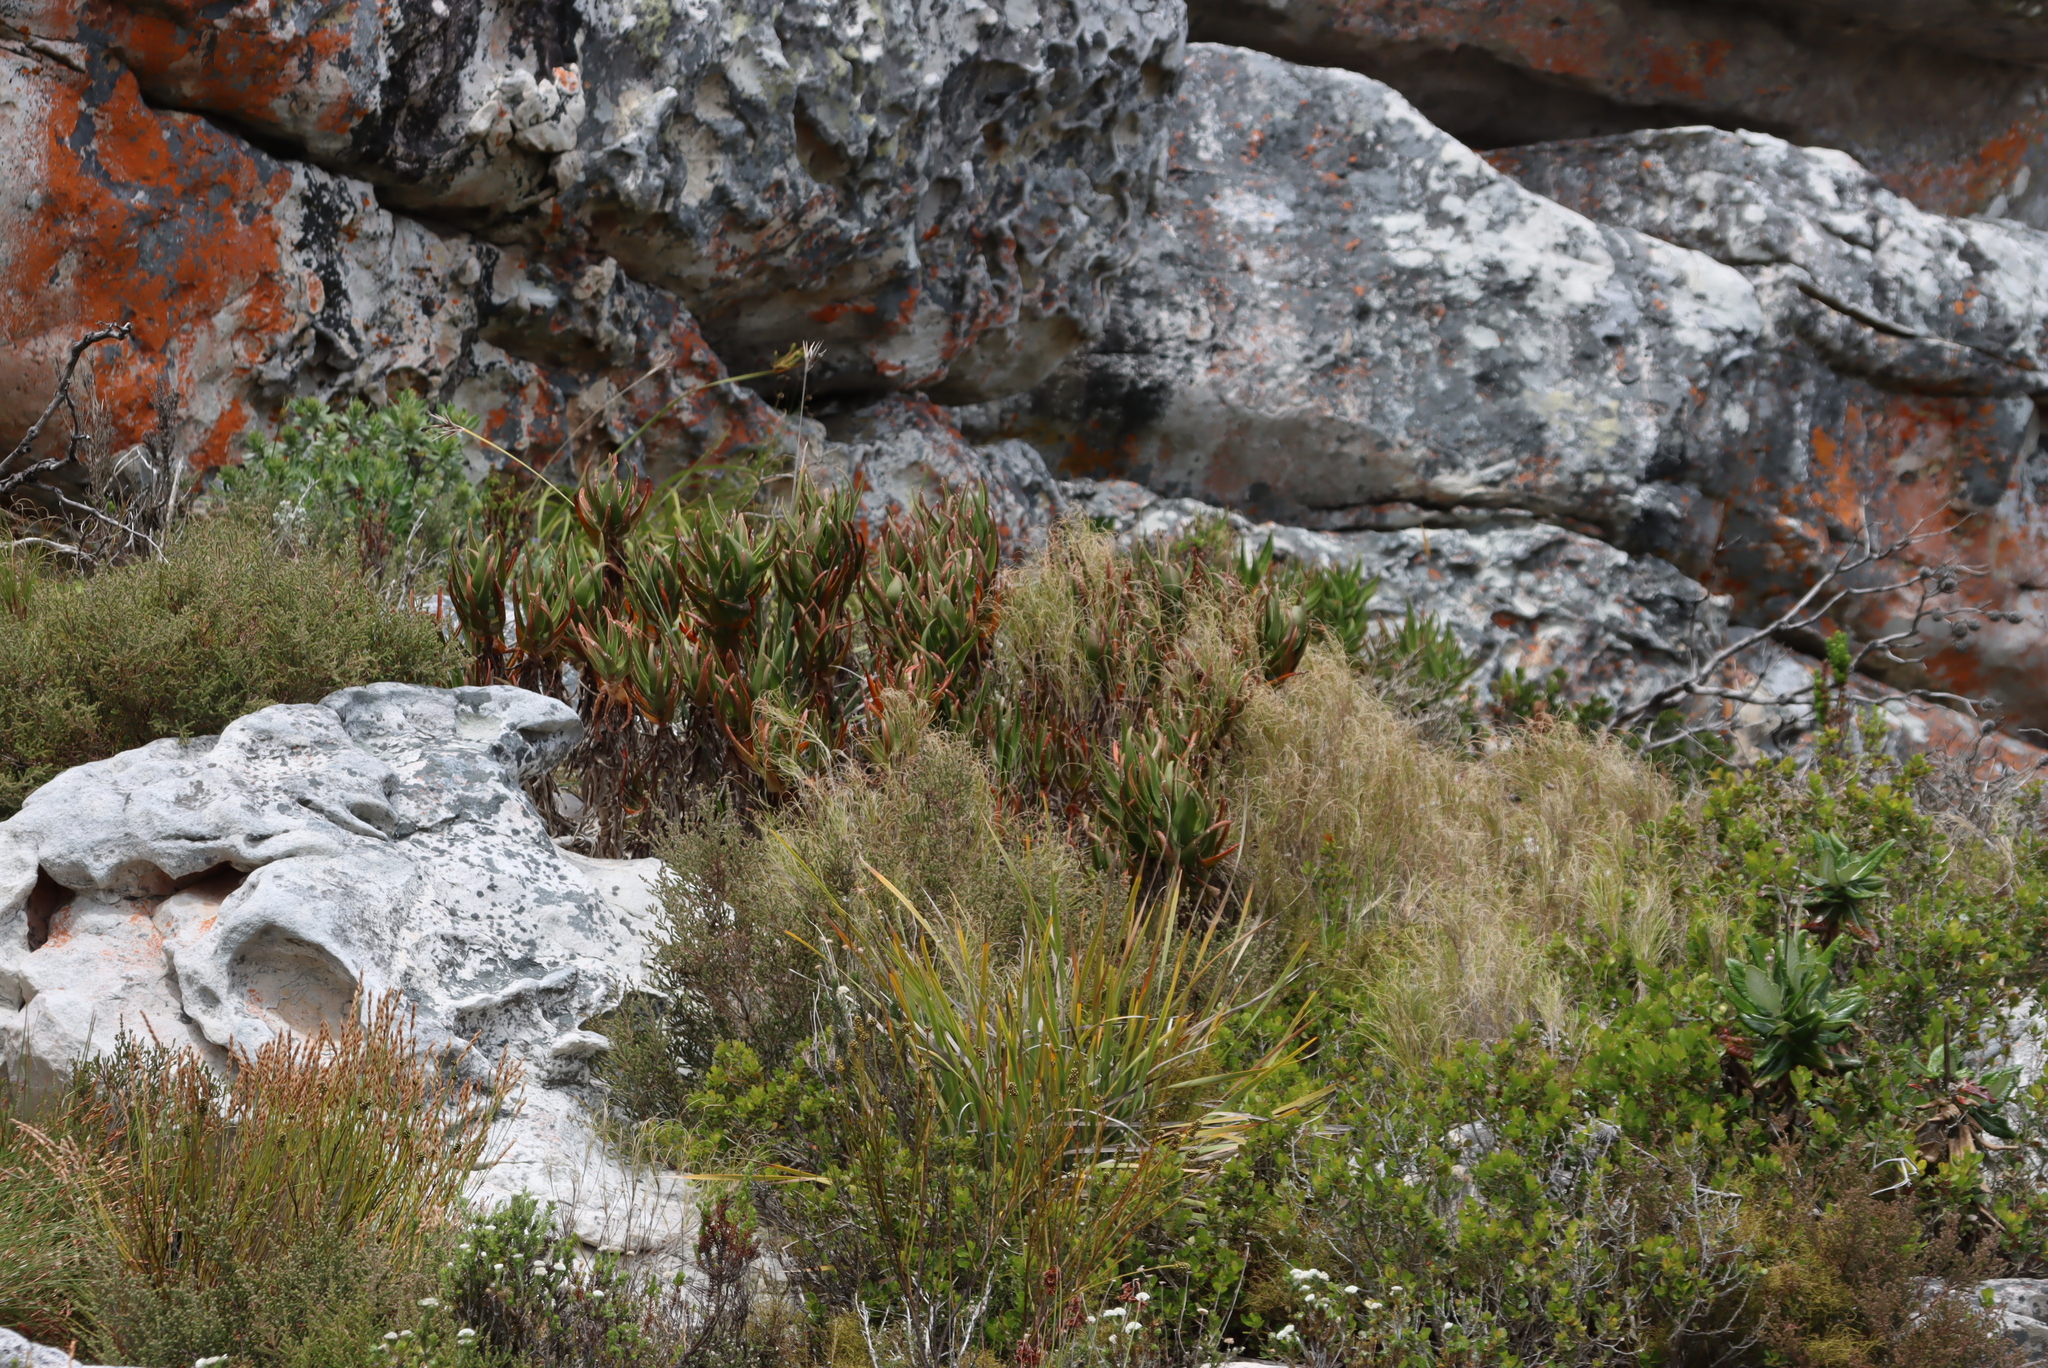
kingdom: Plantae
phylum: Tracheophyta
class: Liliopsida
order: Asparagales
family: Asphodelaceae
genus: Aloiampelos
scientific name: Aloiampelos commixta
